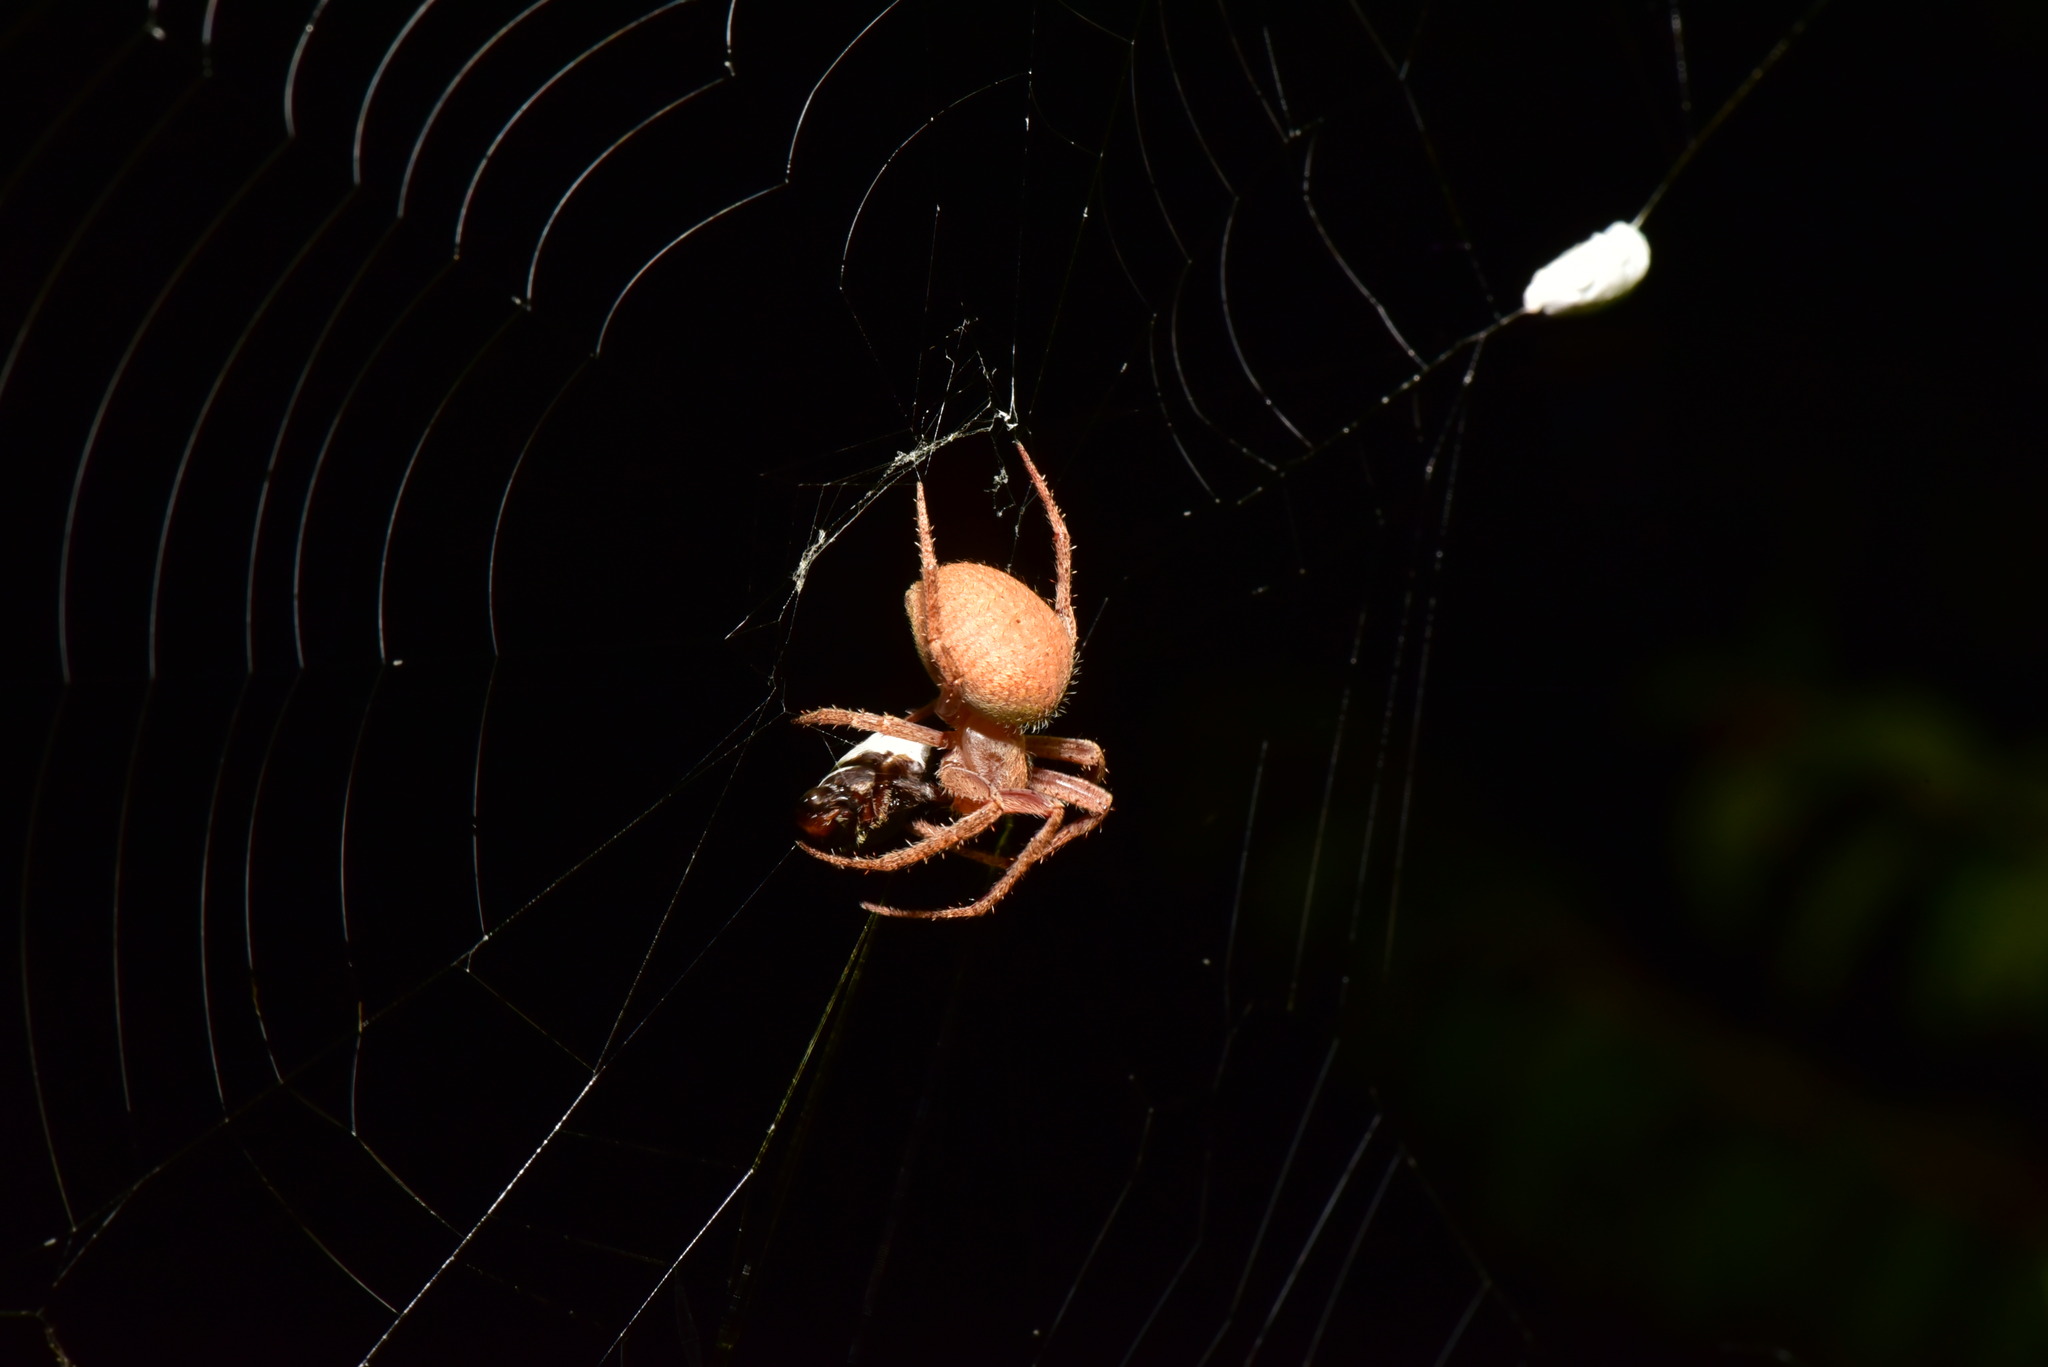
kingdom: Animalia
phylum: Arthropoda
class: Arachnida
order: Araneae
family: Araneidae
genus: Neoscona
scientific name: Neoscona punctigera
